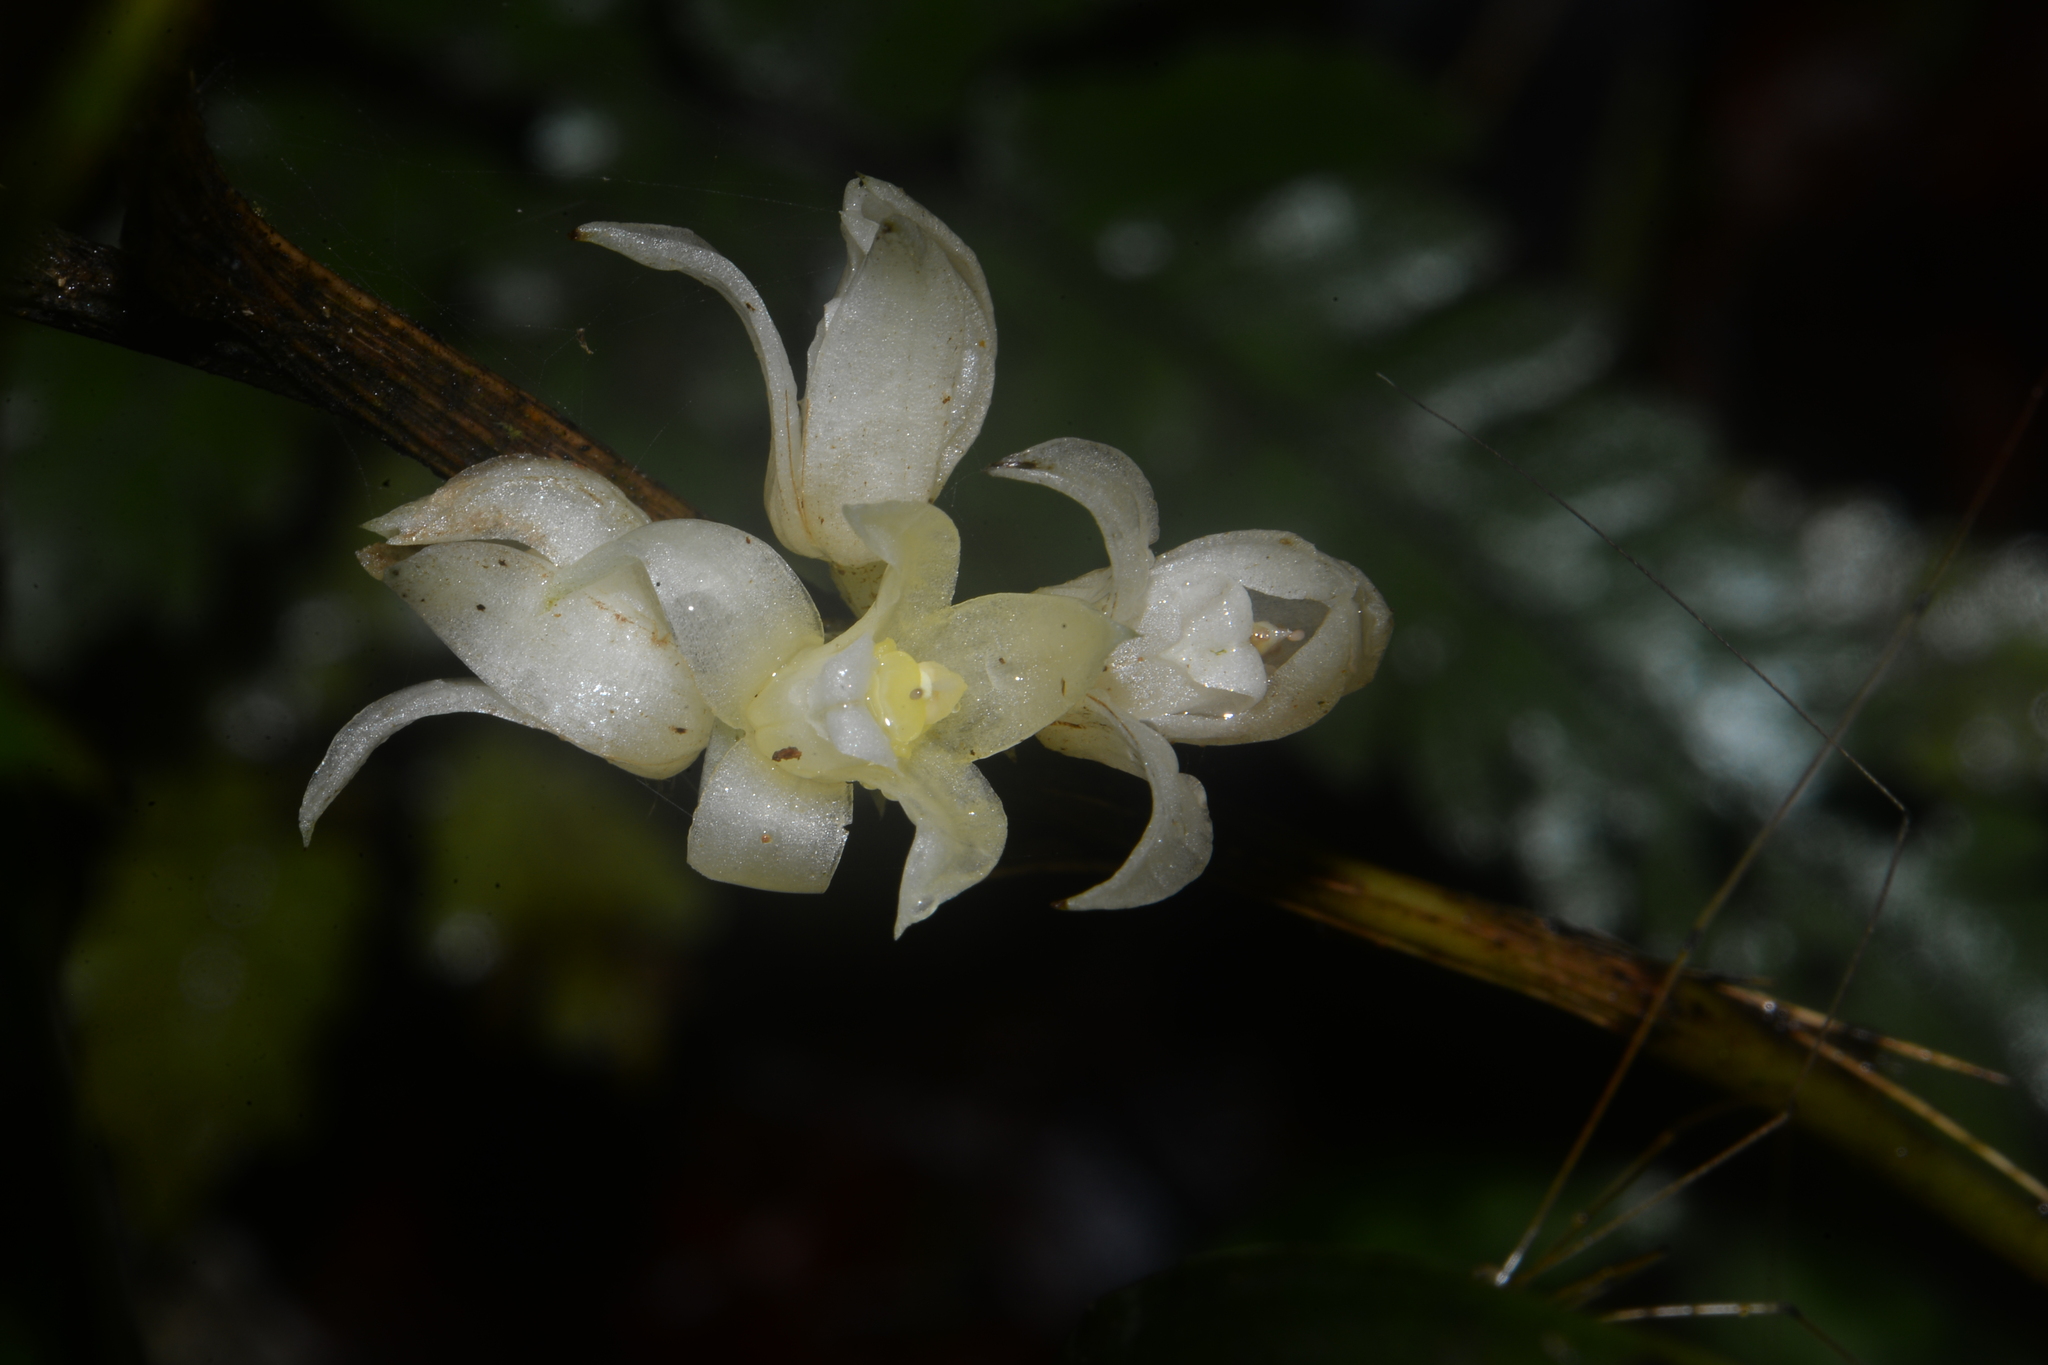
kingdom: Plantae
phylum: Tracheophyta
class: Liliopsida
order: Asparagales
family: Orchidaceae
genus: Tropidia
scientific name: Tropidia curculigoides
